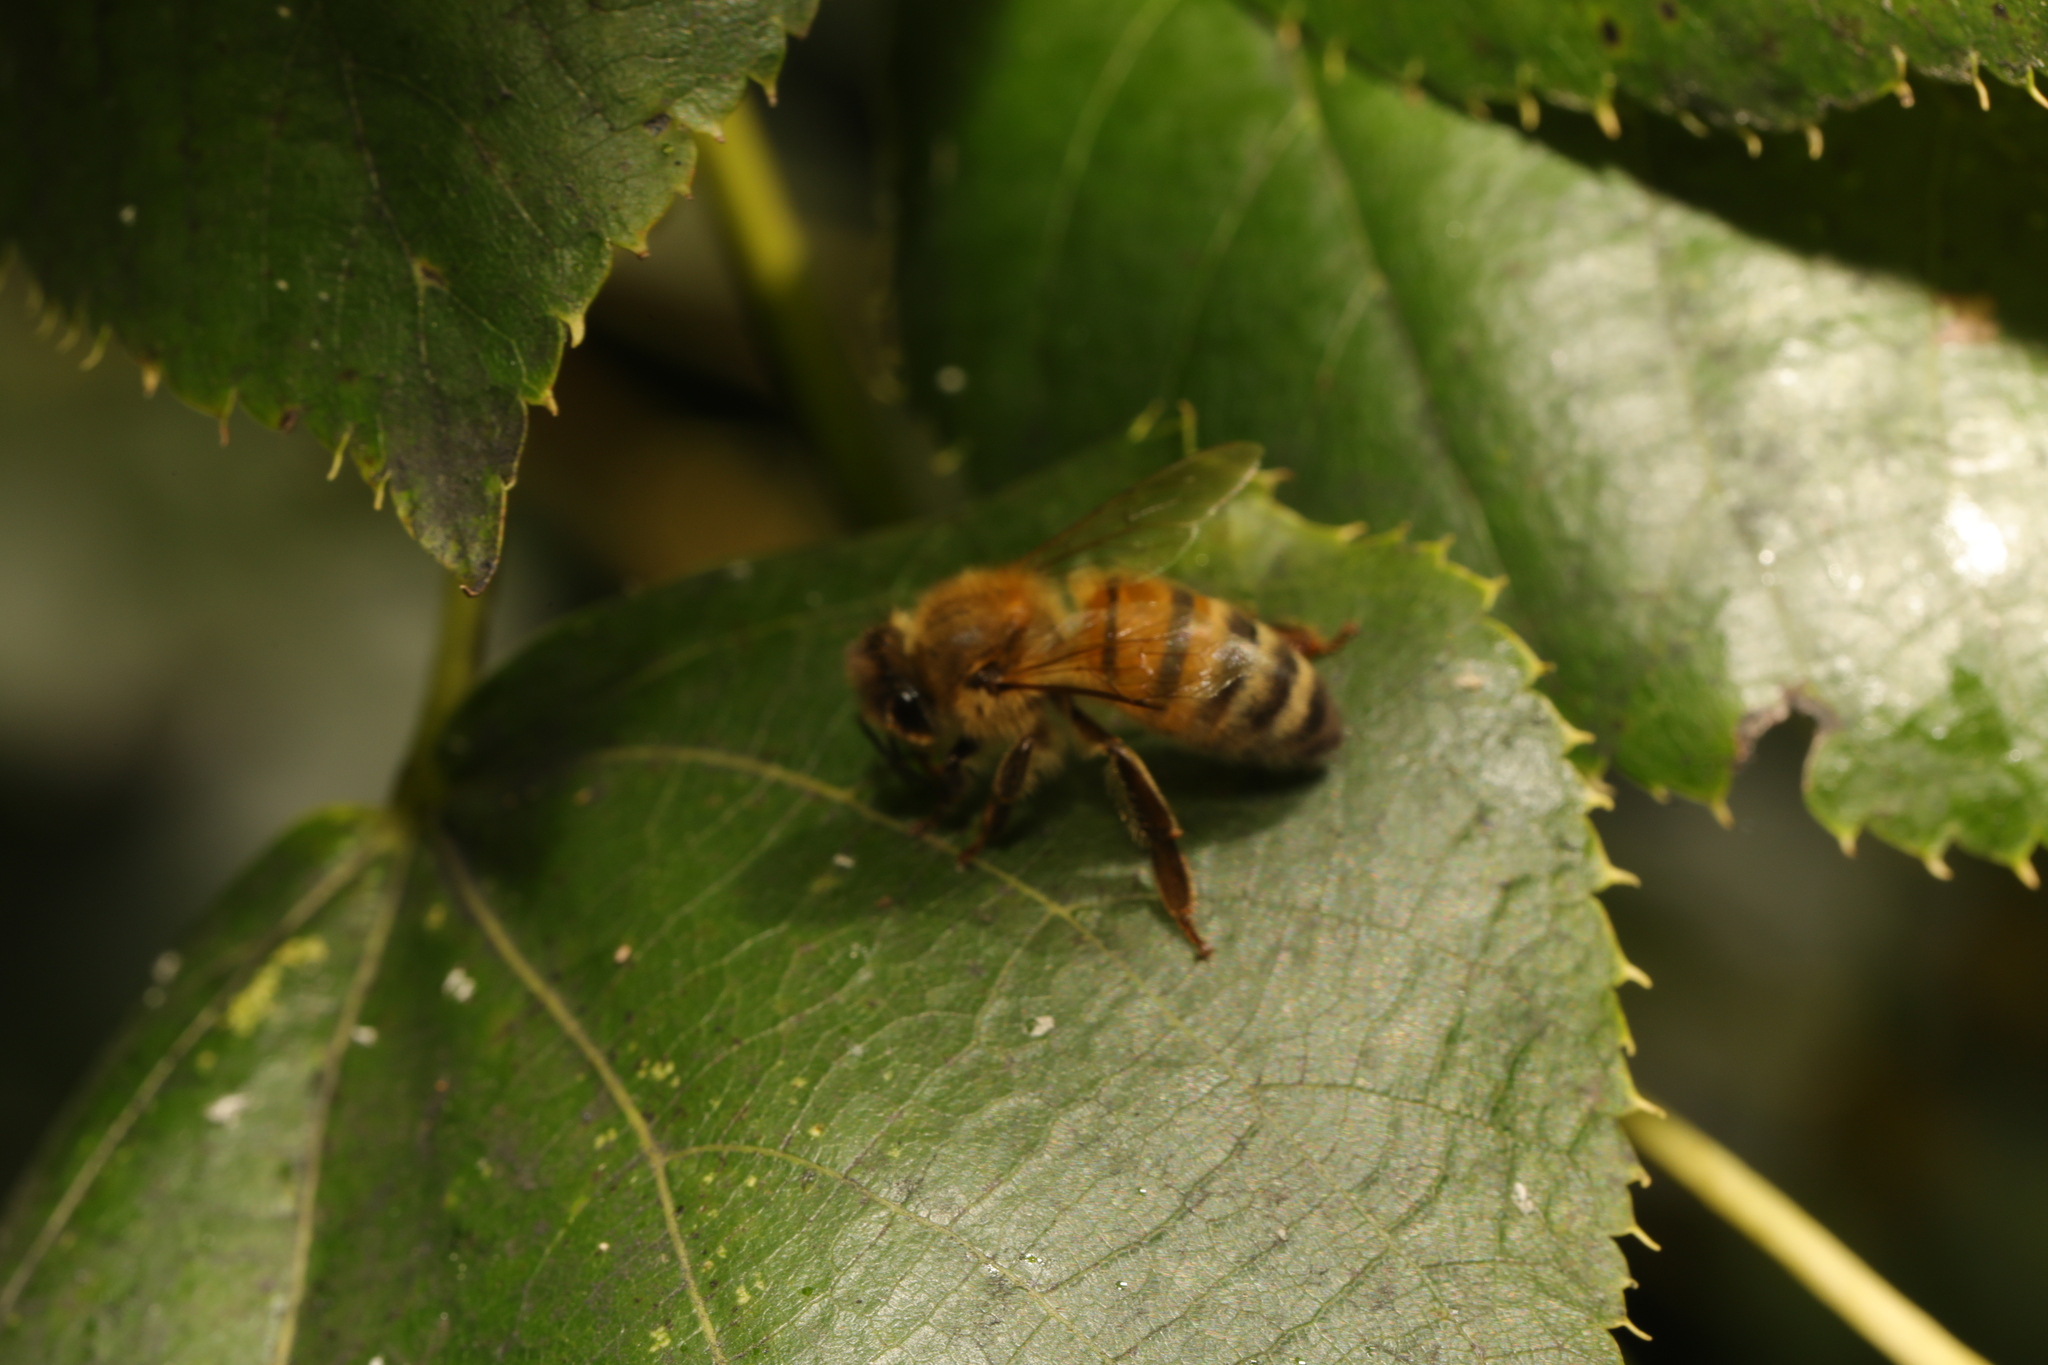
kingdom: Animalia
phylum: Arthropoda
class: Insecta
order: Hymenoptera
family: Apidae
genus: Apis
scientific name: Apis mellifera
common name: Honey bee
